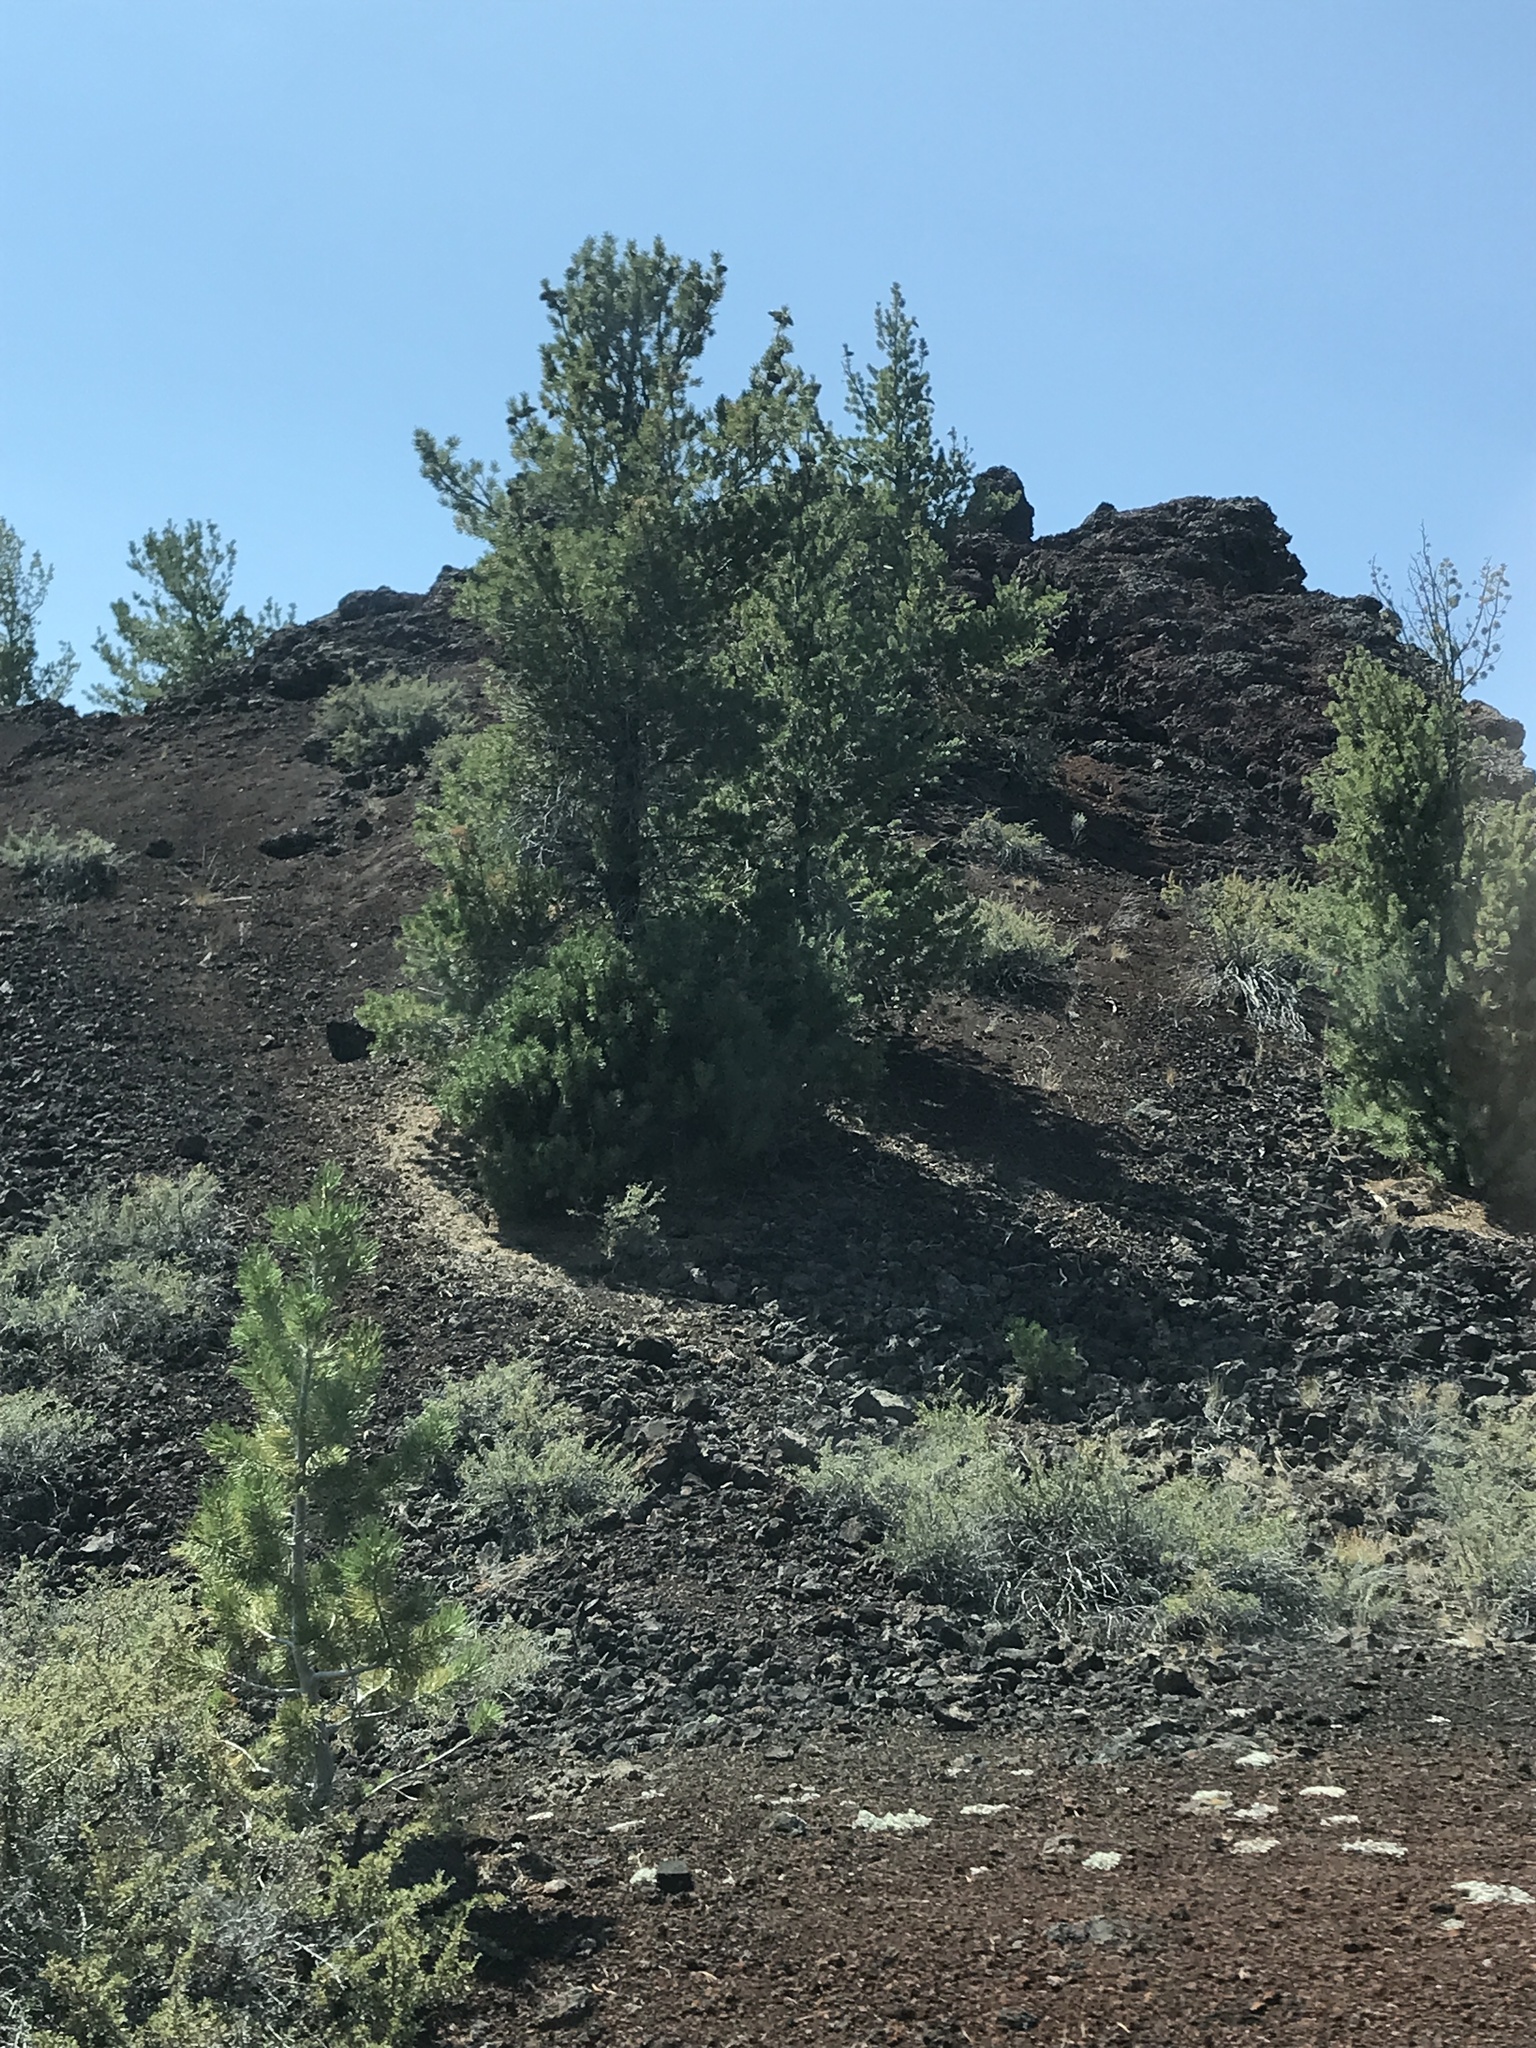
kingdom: Plantae
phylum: Tracheophyta
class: Pinopsida
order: Pinales
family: Pinaceae
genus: Pinus
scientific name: Pinus flexilis
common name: Limber pine
